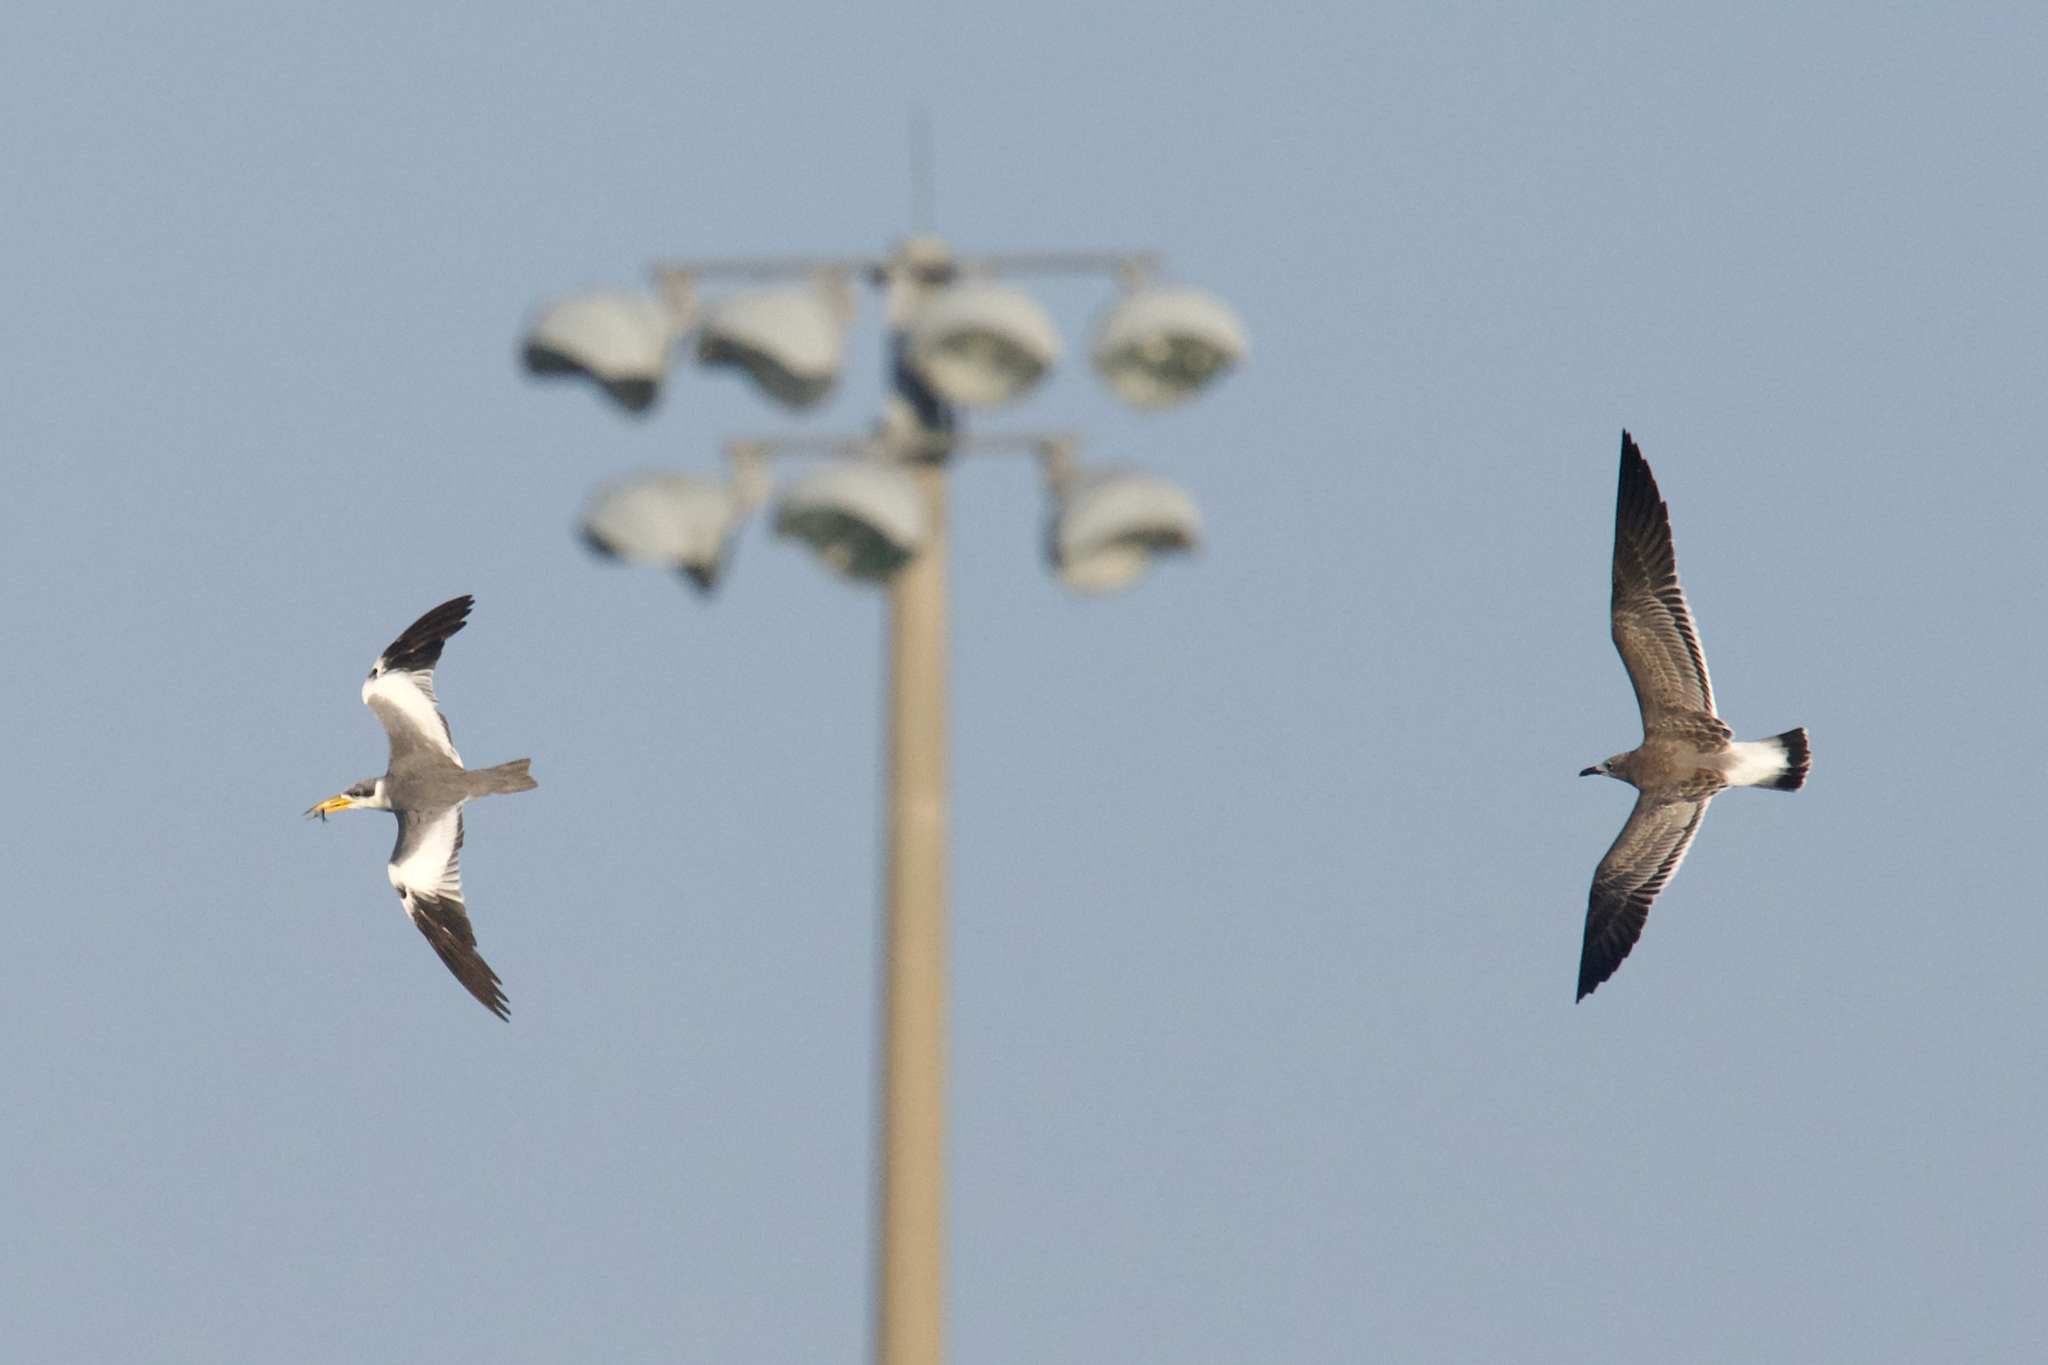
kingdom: Animalia
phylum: Chordata
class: Aves
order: Charadriiformes
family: Laridae
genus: Phaetusa
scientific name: Phaetusa simplex
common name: Large-billed tern
